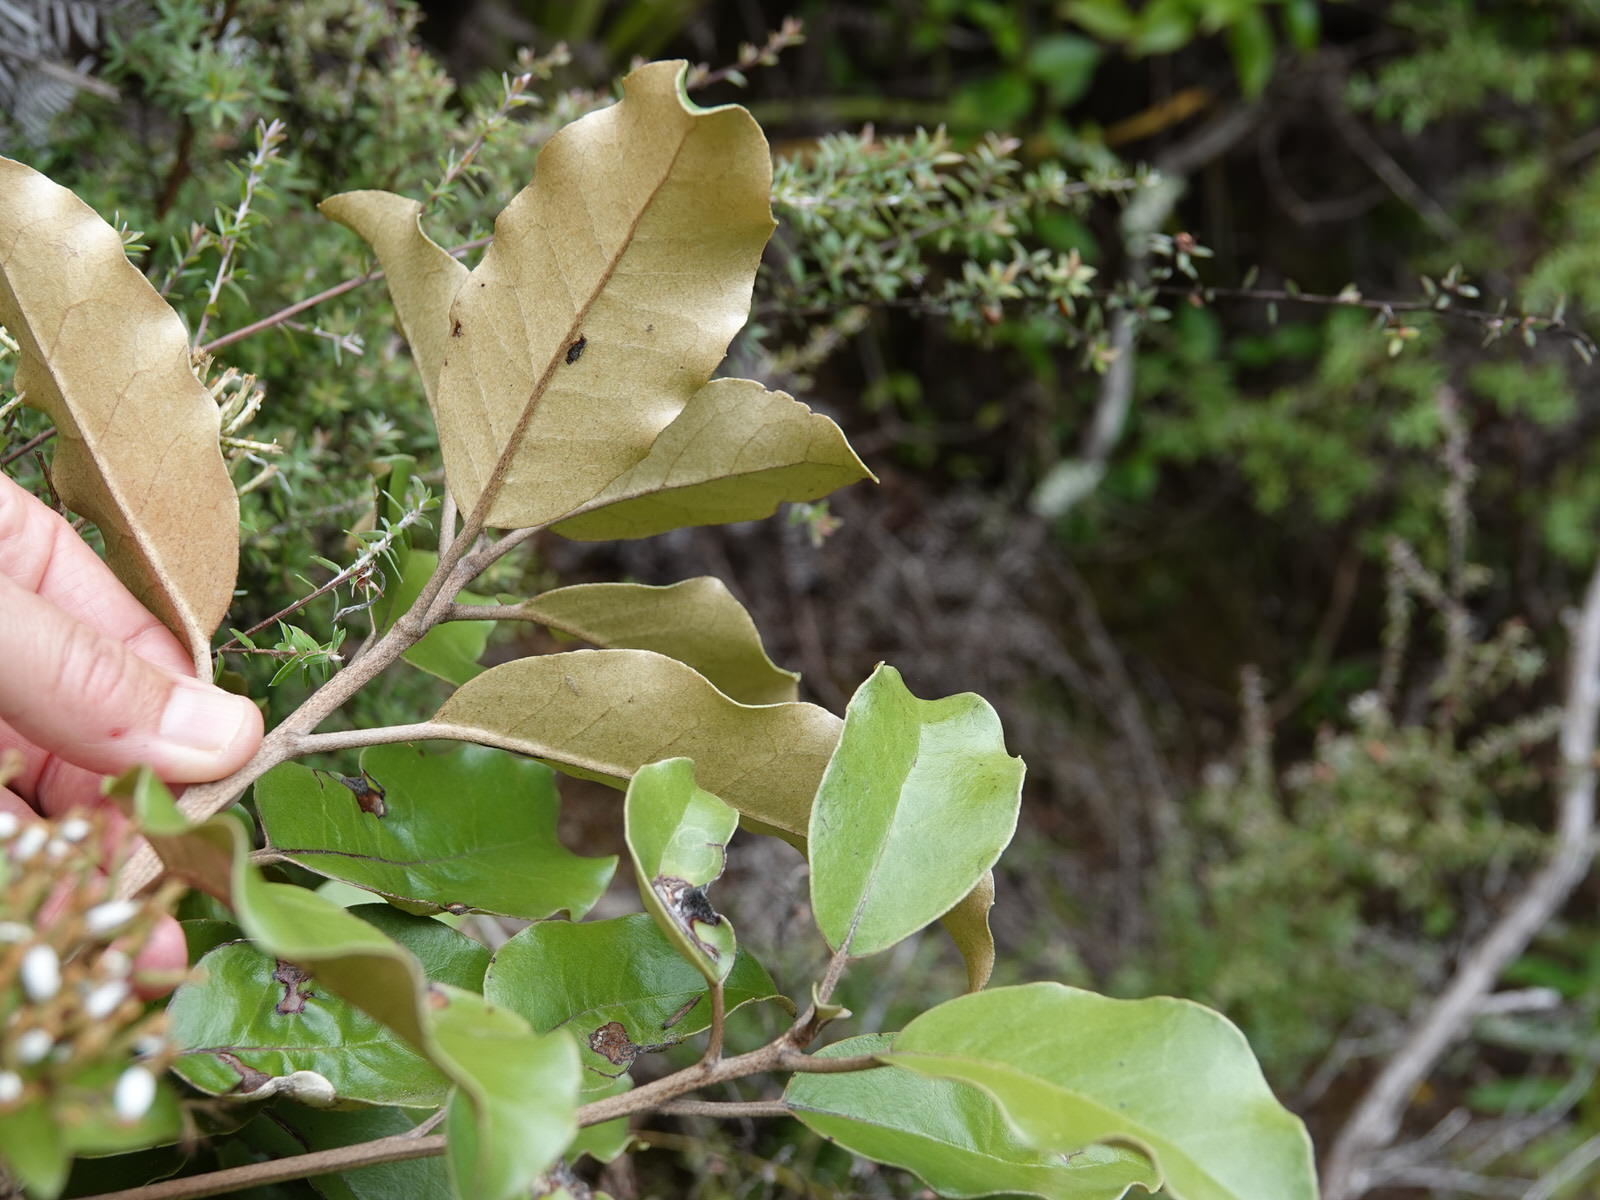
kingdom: Plantae
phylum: Tracheophyta
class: Magnoliopsida
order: Asterales
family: Asteraceae
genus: Olearia
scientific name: Olearia furfuracea
